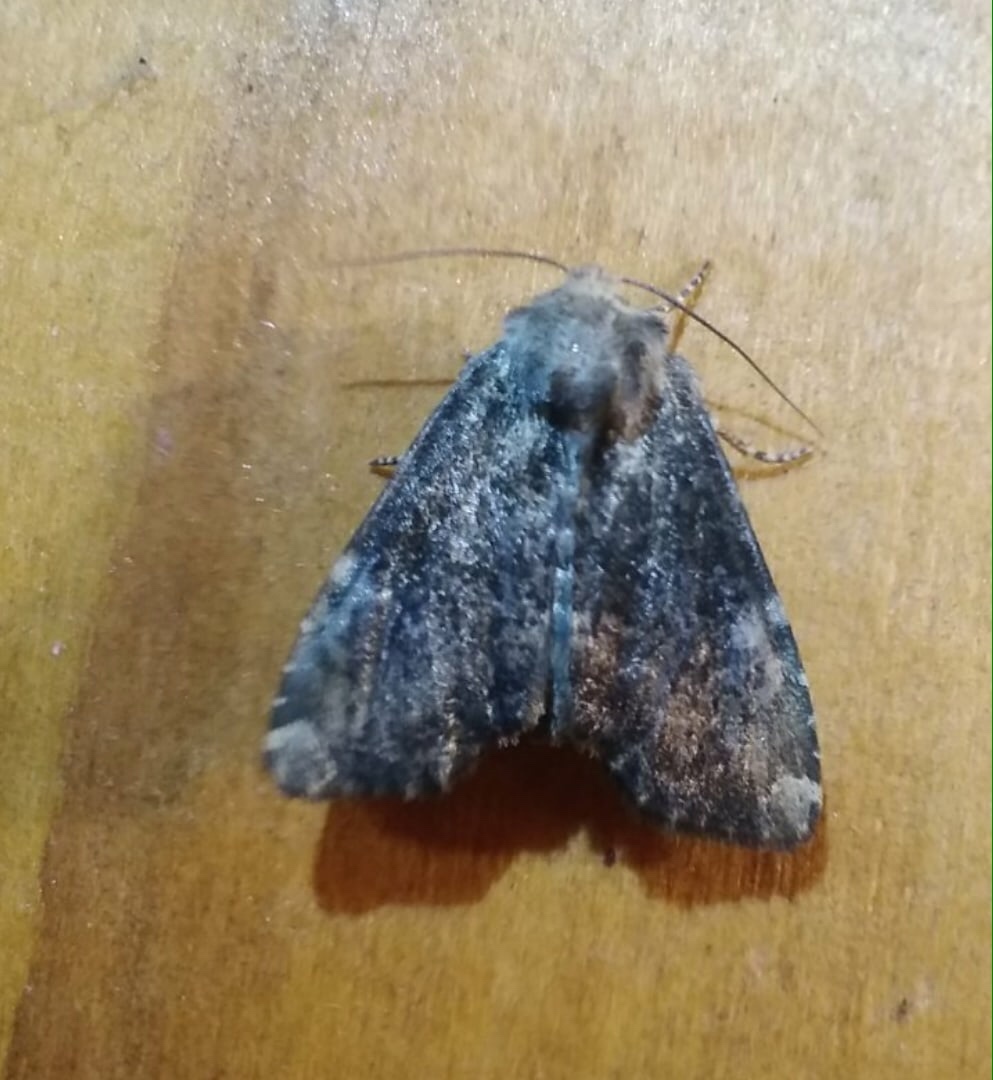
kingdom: Animalia
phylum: Arthropoda
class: Insecta
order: Lepidoptera
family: Noctuidae
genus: Loscopia
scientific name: Loscopia scolopacina
